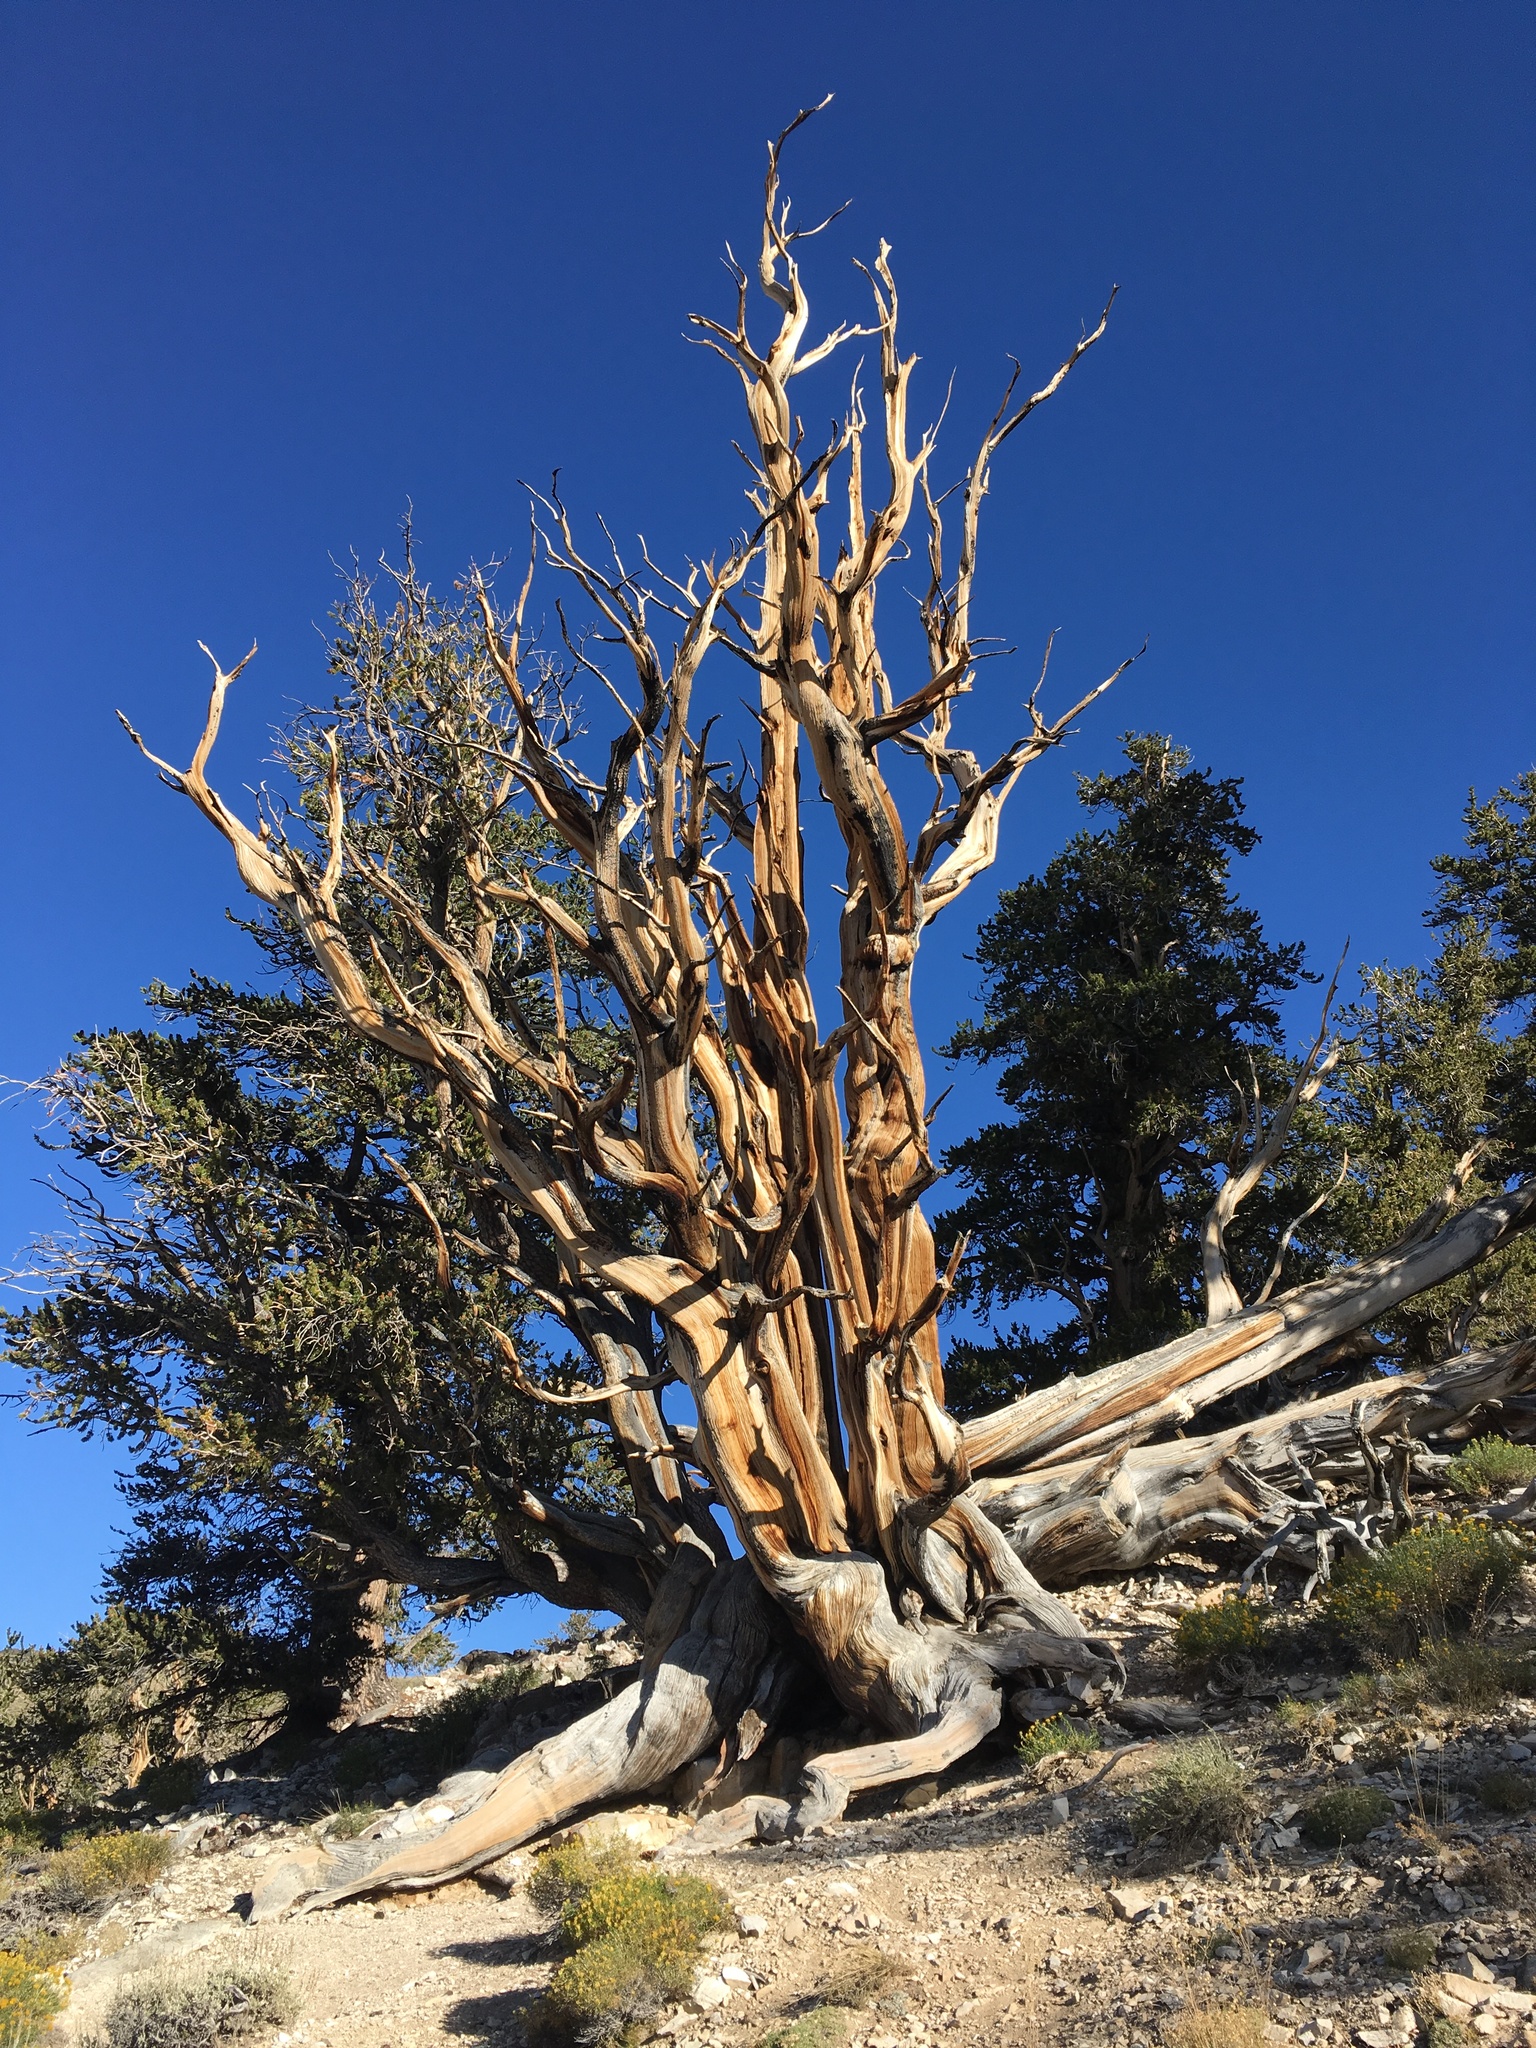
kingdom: Plantae
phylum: Tracheophyta
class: Pinopsida
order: Pinales
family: Pinaceae
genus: Pinus
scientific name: Pinus longaeva
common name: Intermountain bristlecone pine
